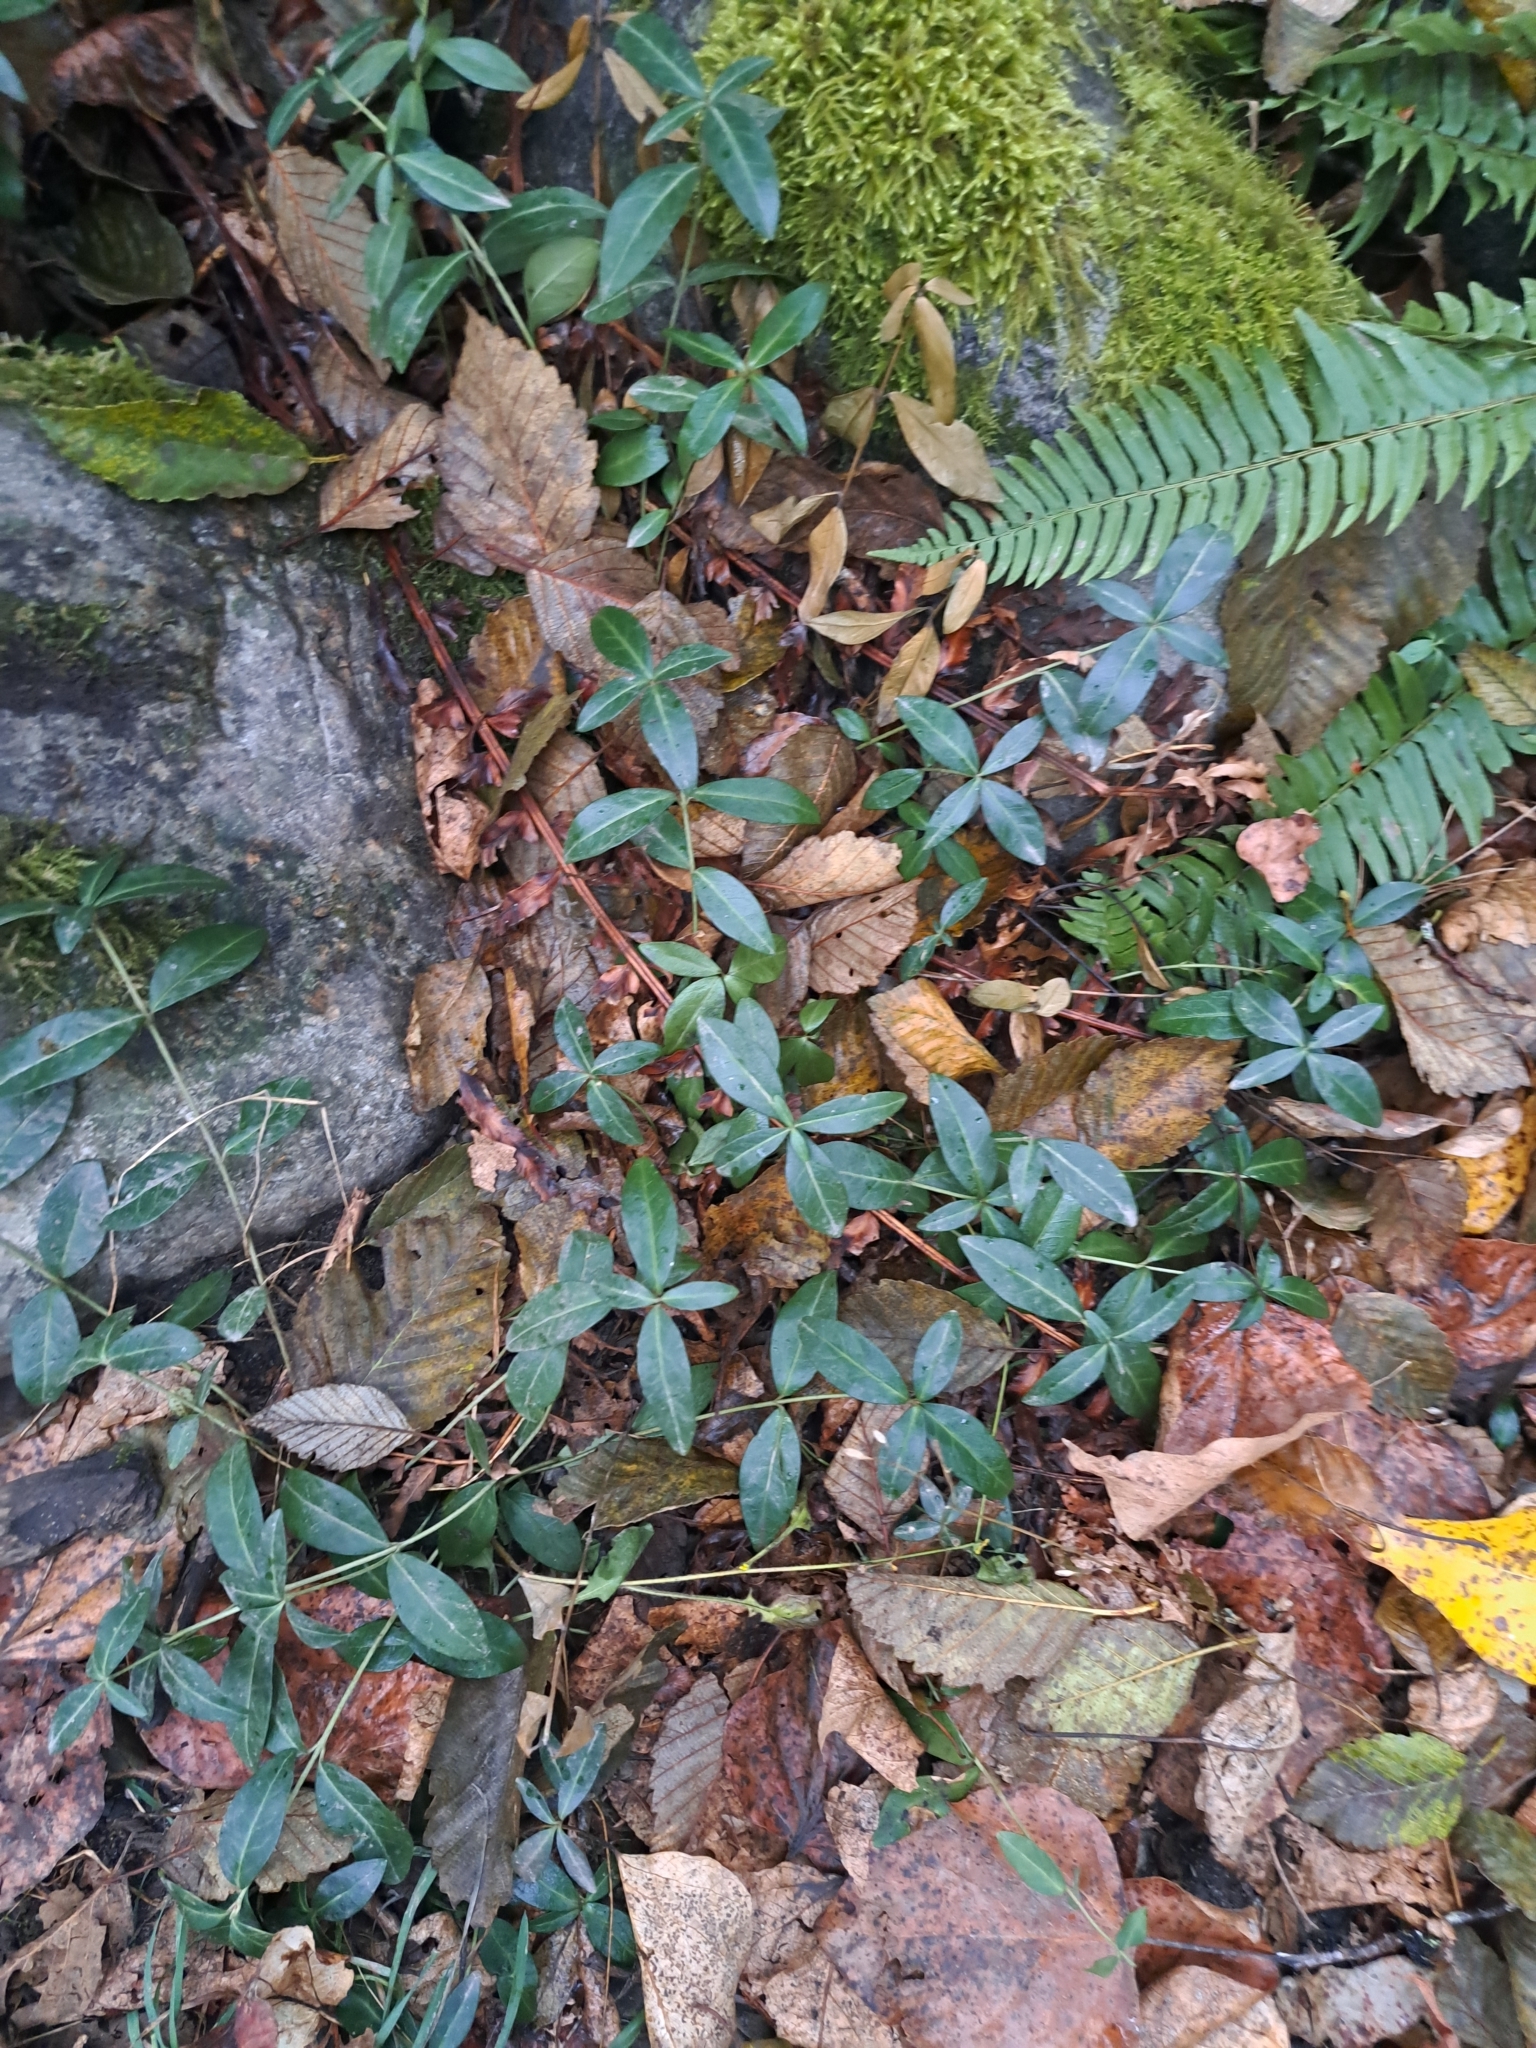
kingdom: Plantae
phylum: Tracheophyta
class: Magnoliopsida
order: Gentianales
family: Apocynaceae
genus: Vinca
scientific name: Vinca minor
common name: Lesser periwinkle
